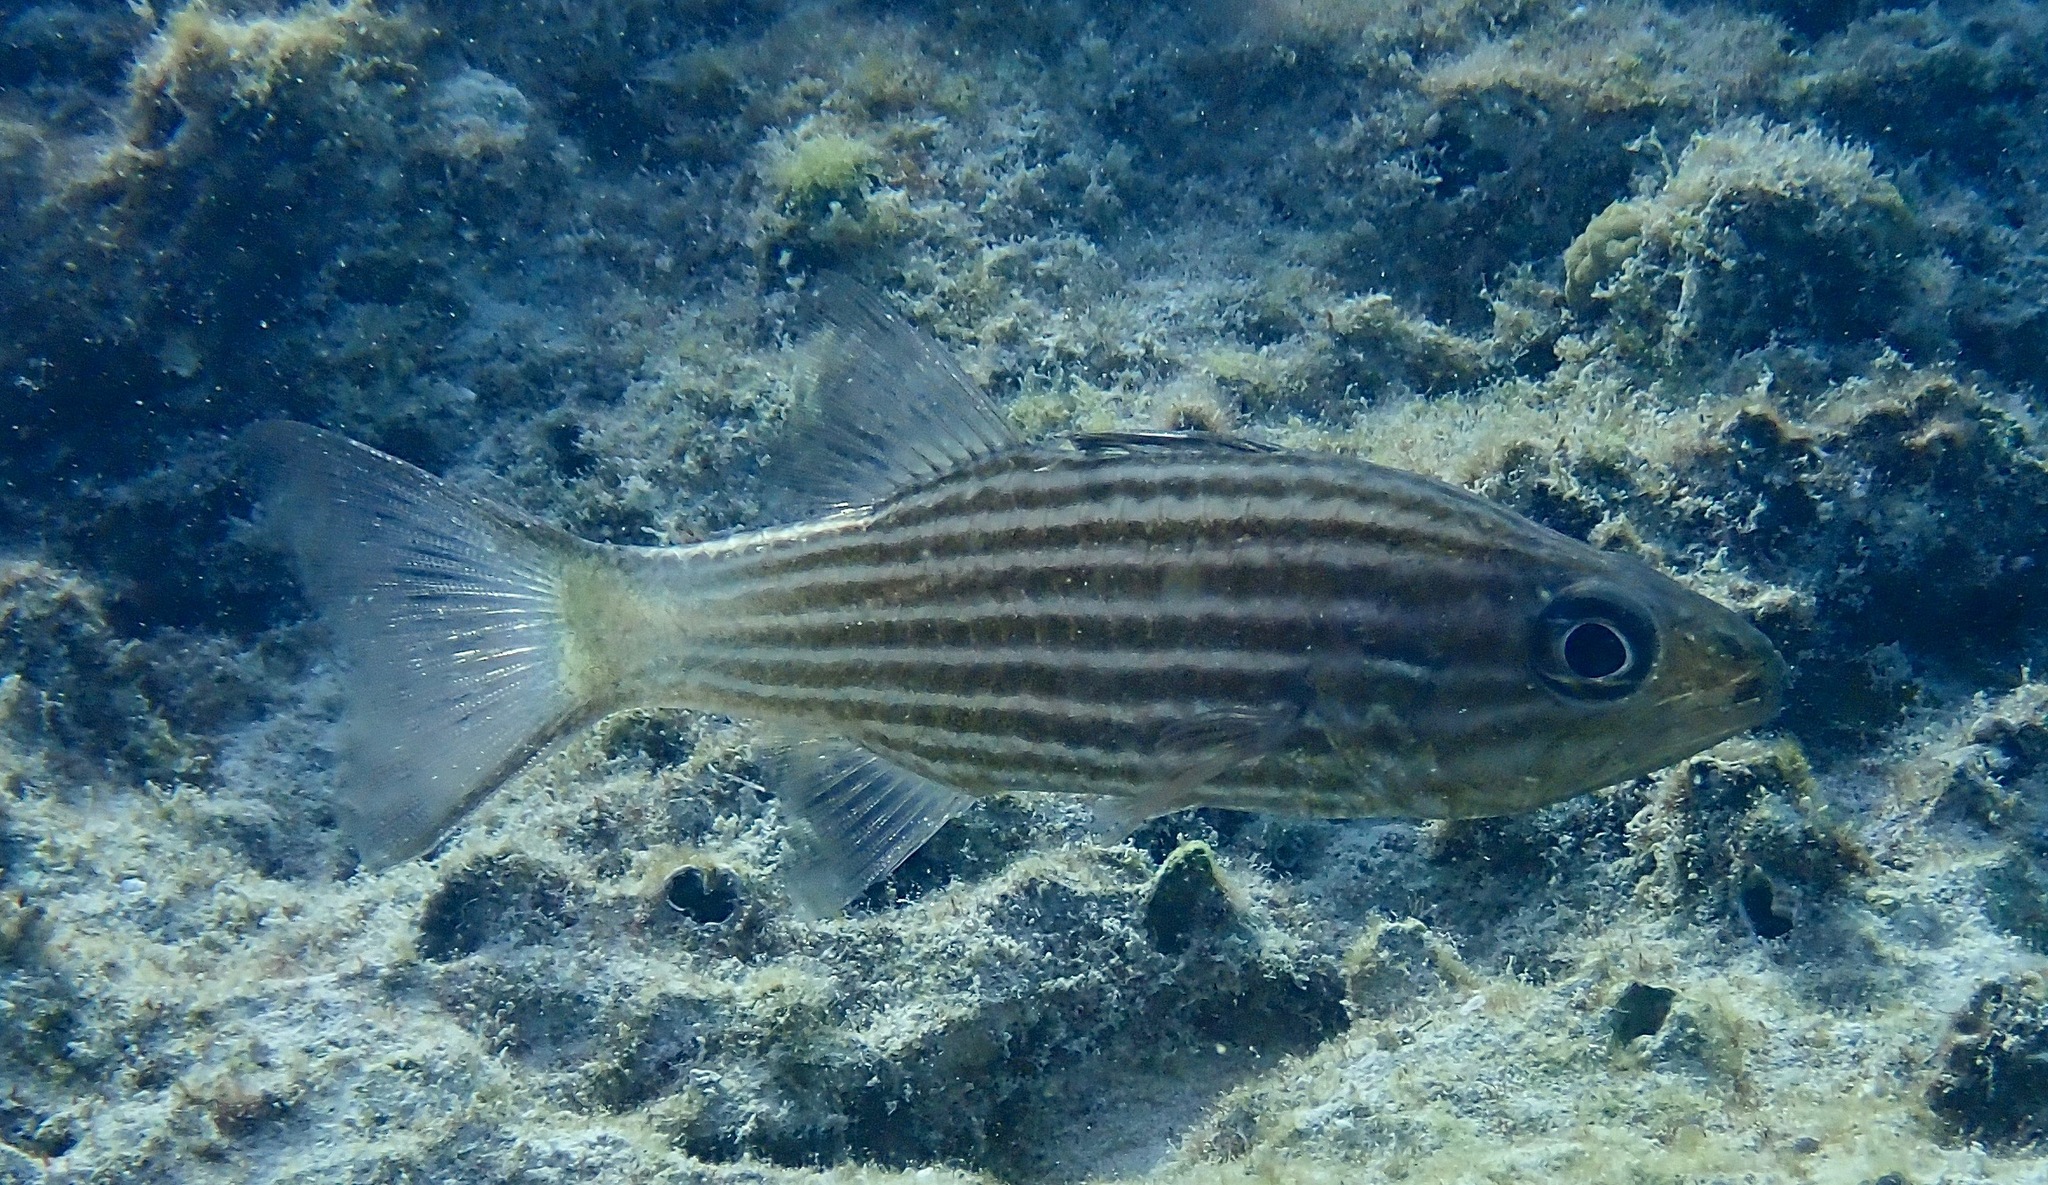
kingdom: Animalia
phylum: Chordata
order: Perciformes
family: Apogonidae
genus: Cheilodipterus
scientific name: Cheilodipterus intermedius
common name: Intermediate cardinalfish
